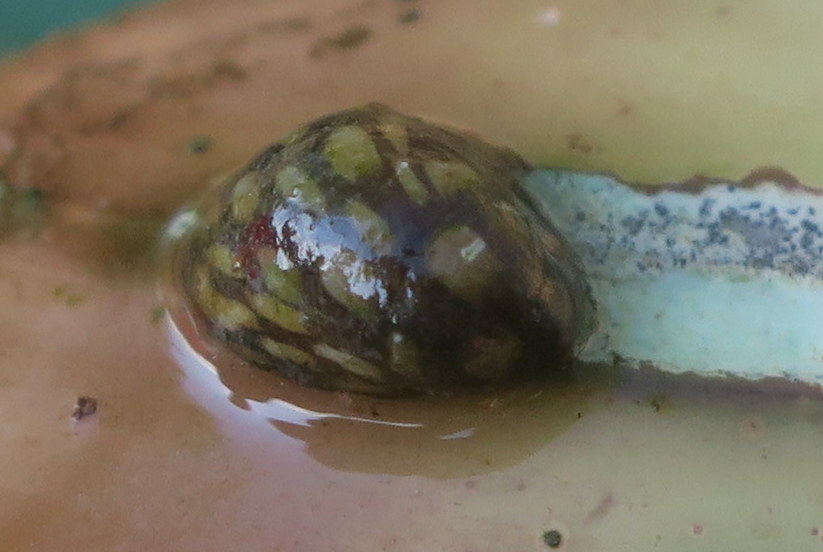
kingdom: Animalia
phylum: Mollusca
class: Gastropoda
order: Cycloneritida
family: Neritidae
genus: Theodoxus
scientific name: Theodoxus fluviatilis
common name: River nerite
